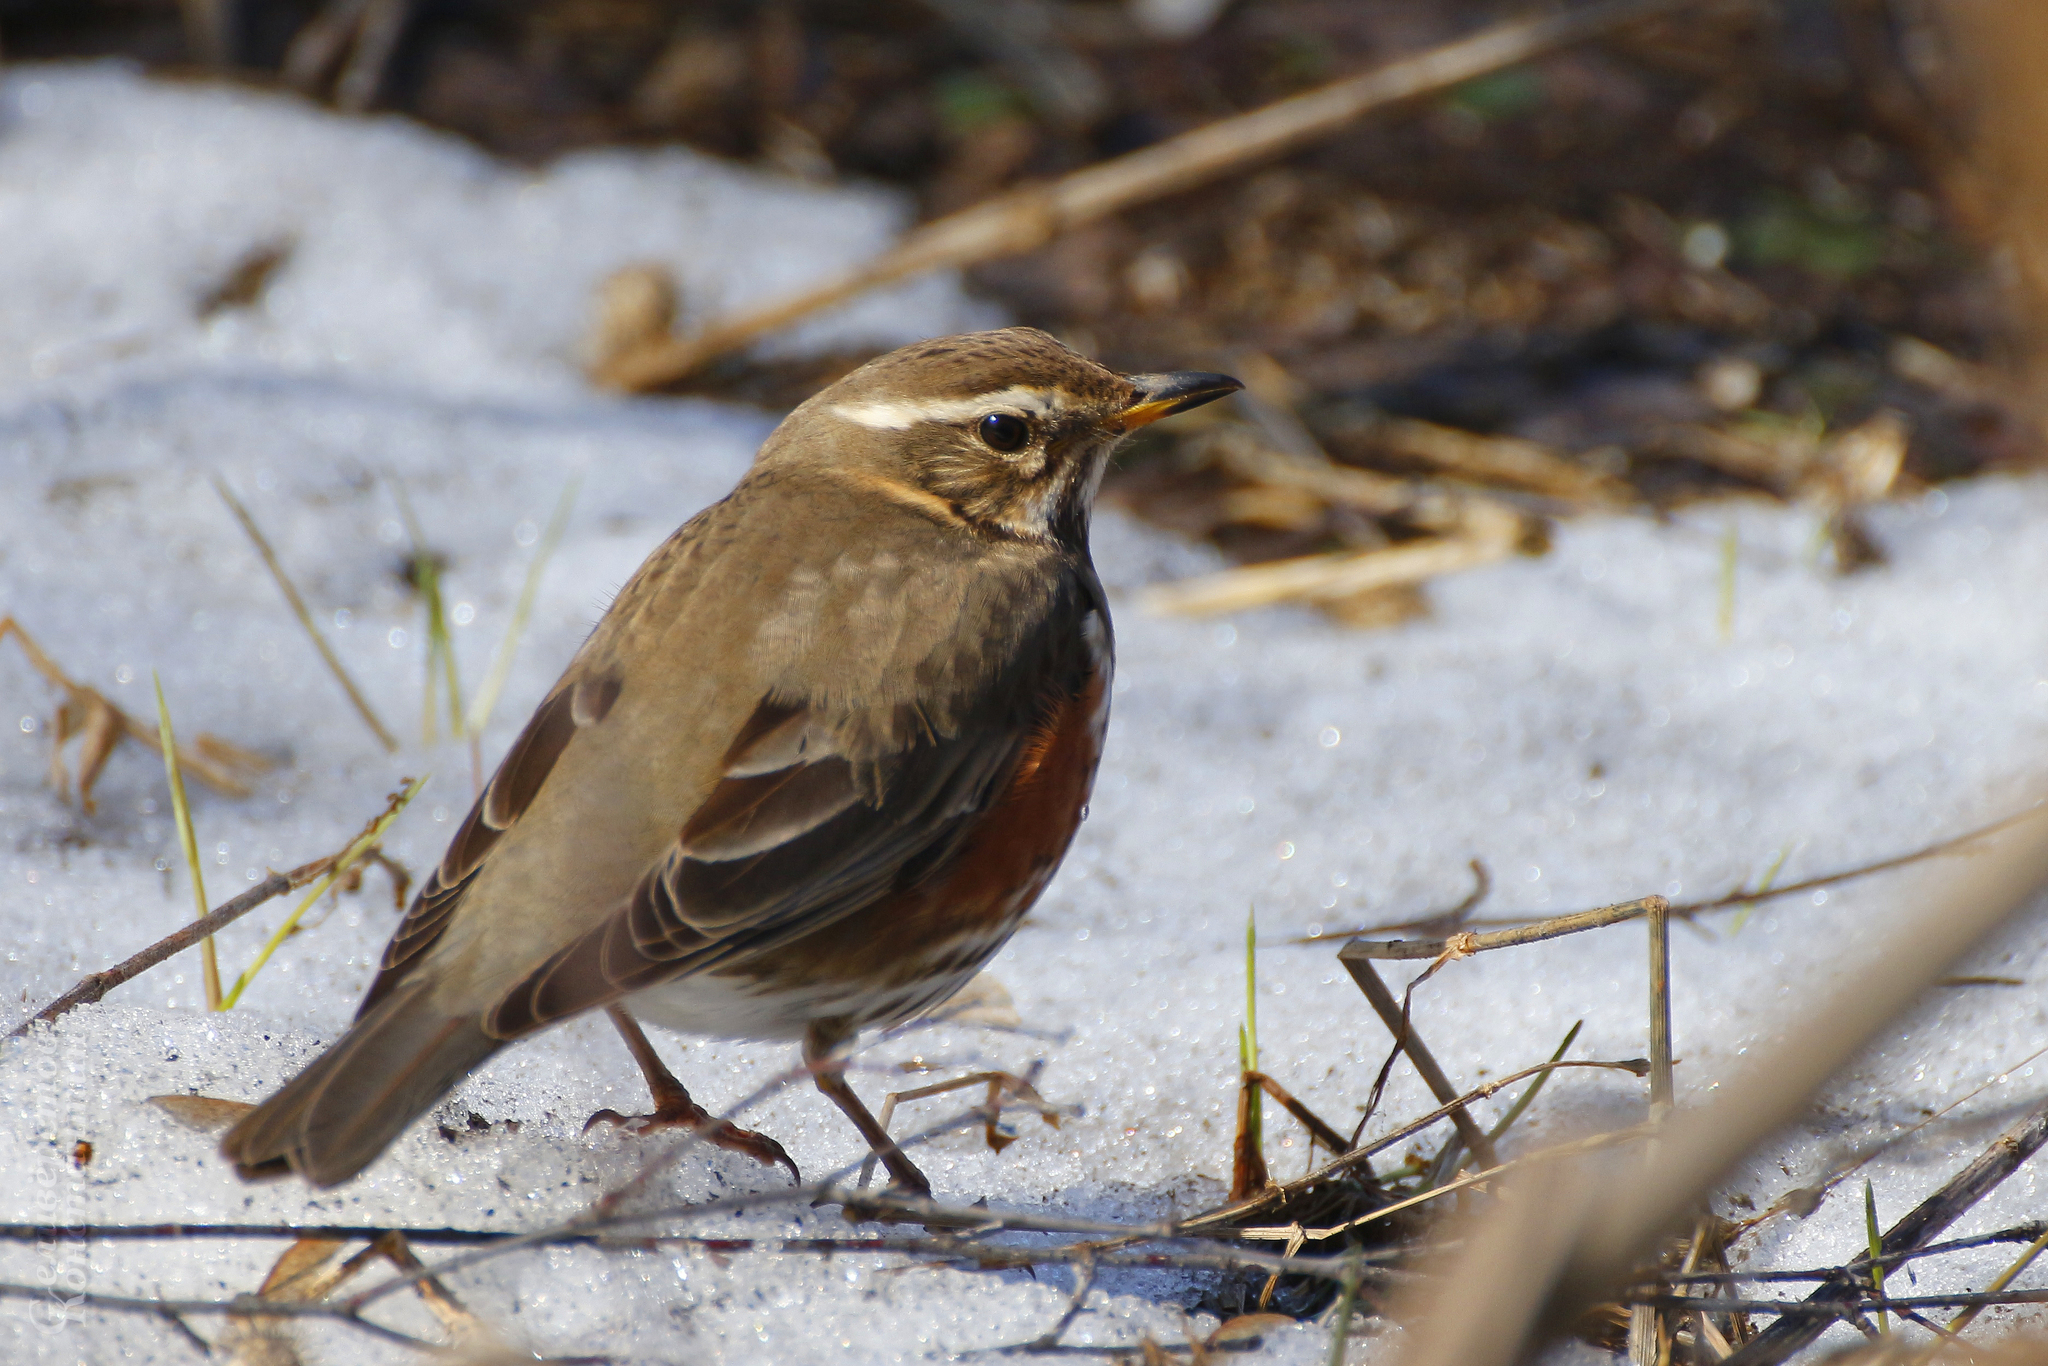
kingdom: Animalia
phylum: Chordata
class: Aves
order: Passeriformes
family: Turdidae
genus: Turdus
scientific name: Turdus iliacus
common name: Redwing
